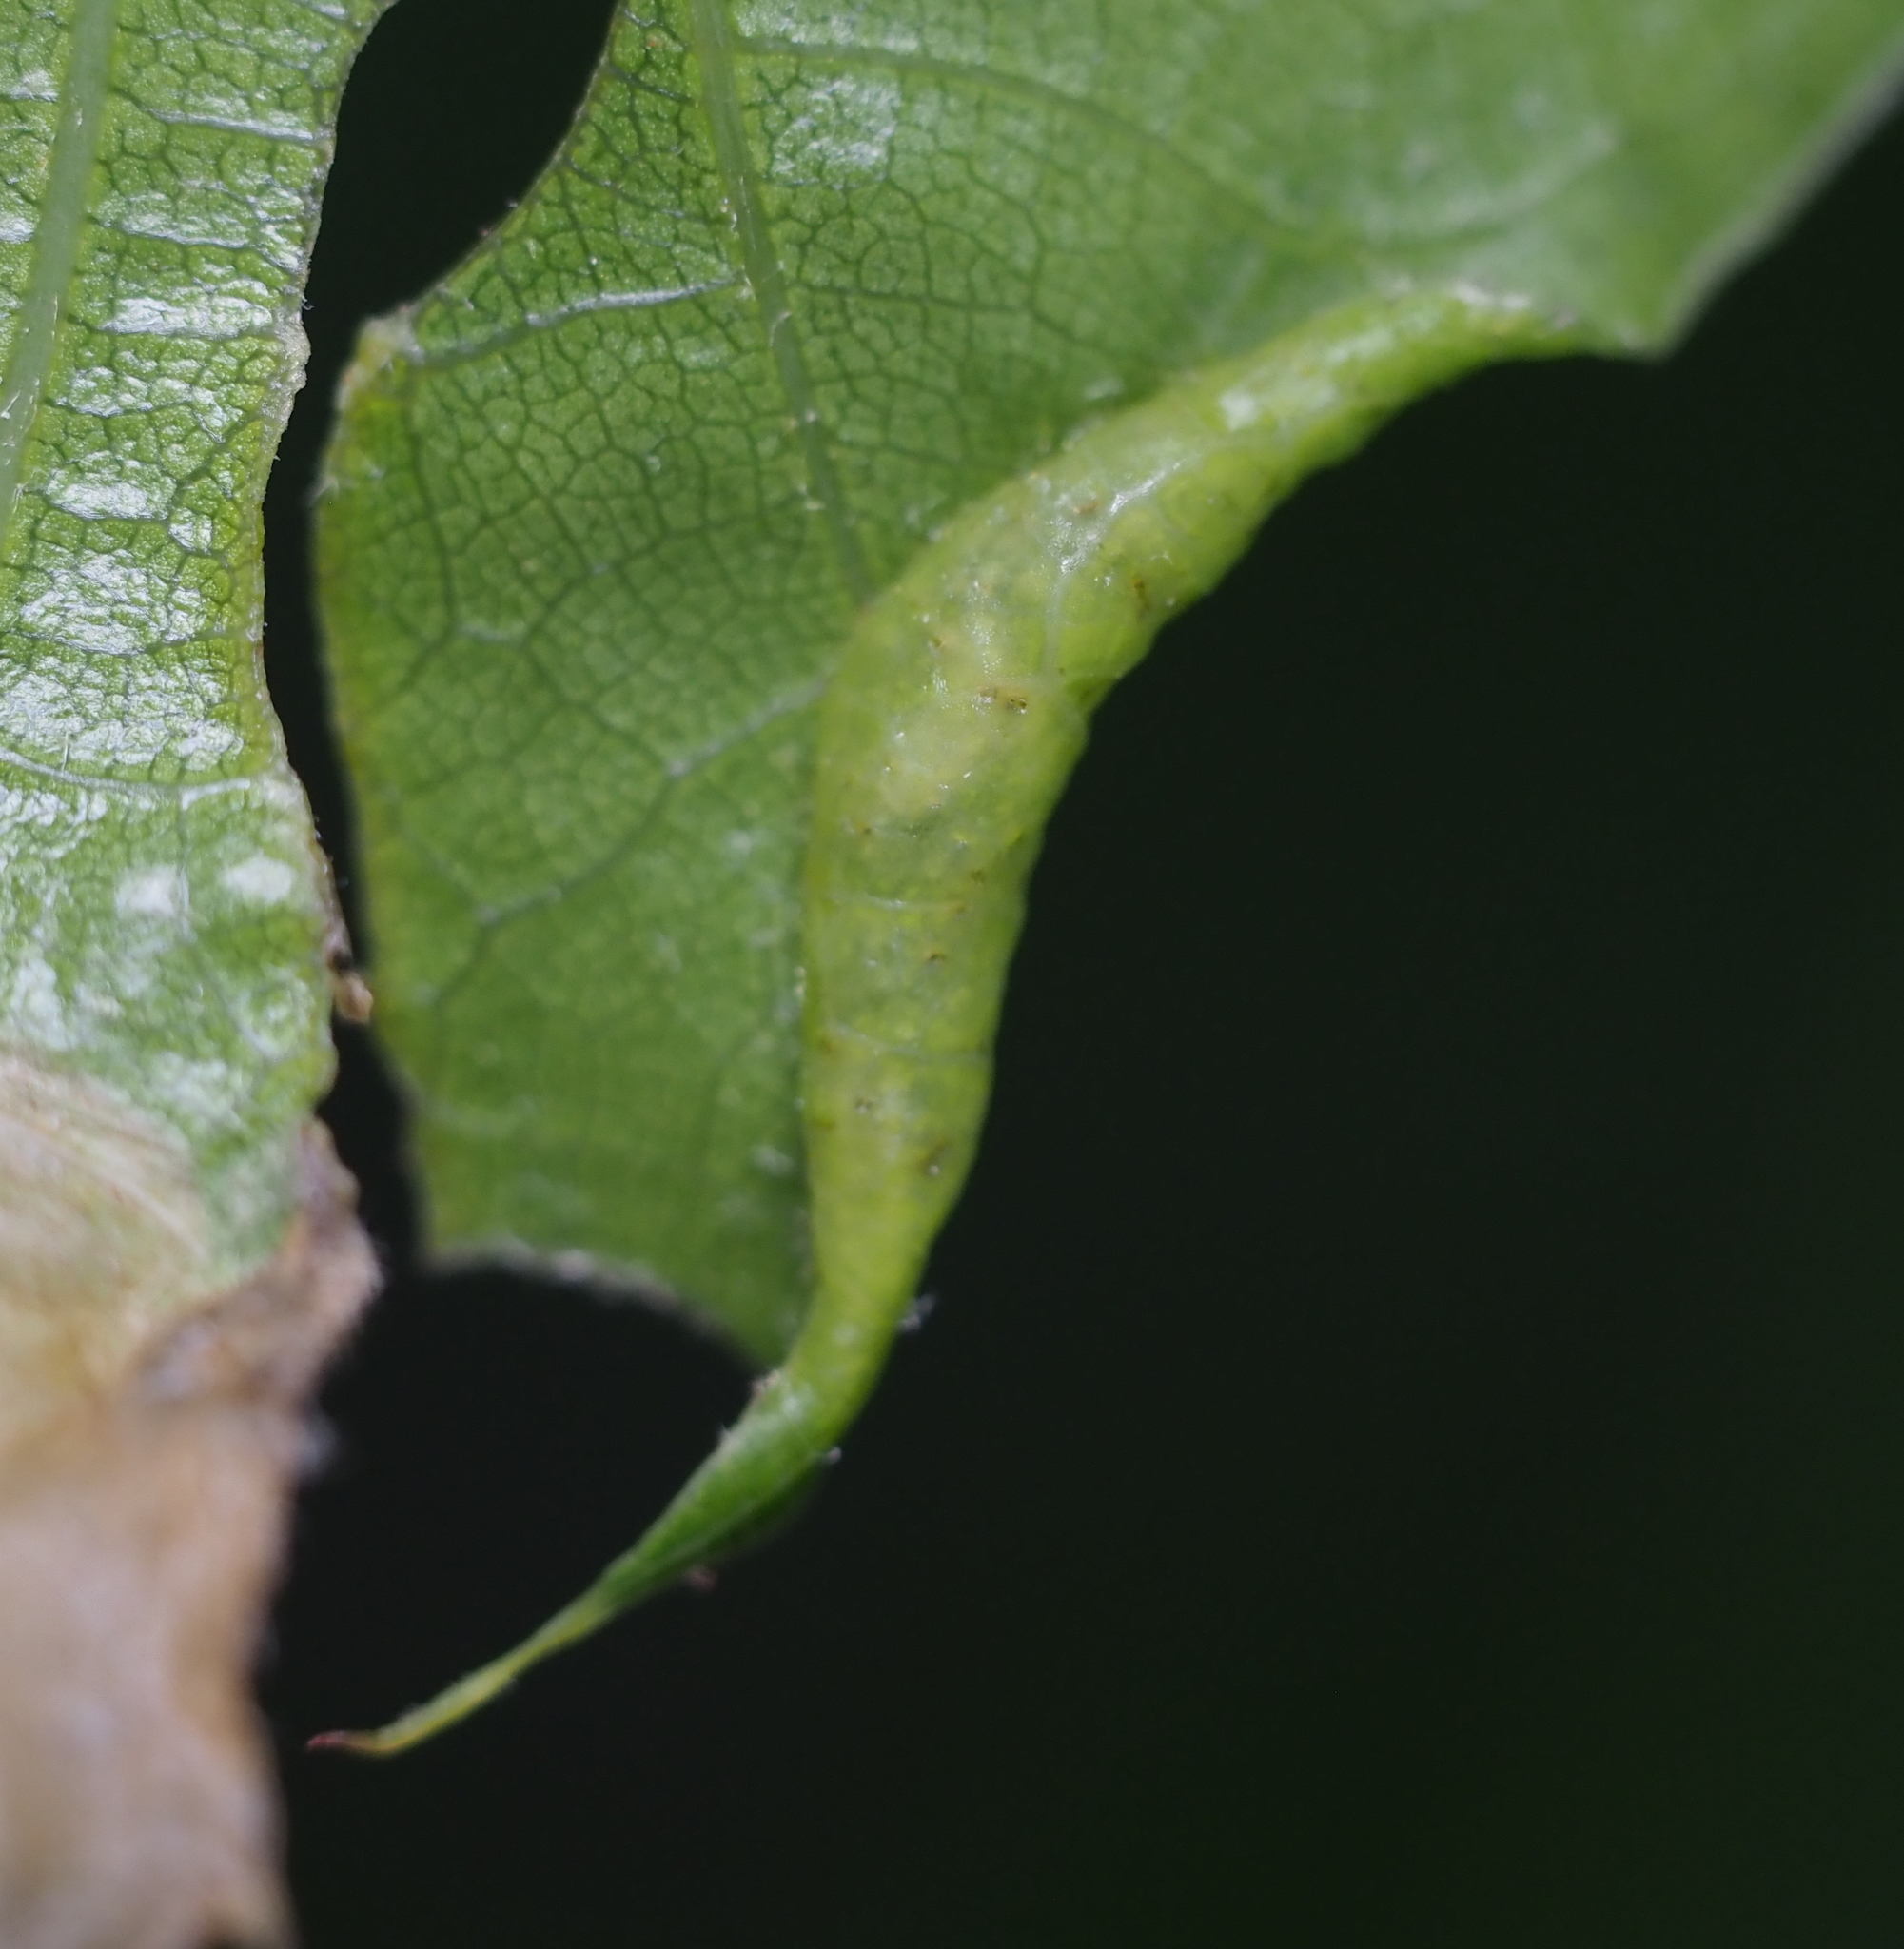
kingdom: Animalia
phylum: Arthropoda
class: Insecta
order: Diptera
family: Cecidomyiidae
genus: Macrodiplosis
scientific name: Macrodiplosis erubescens
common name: Marginal leaf fold gall midge
